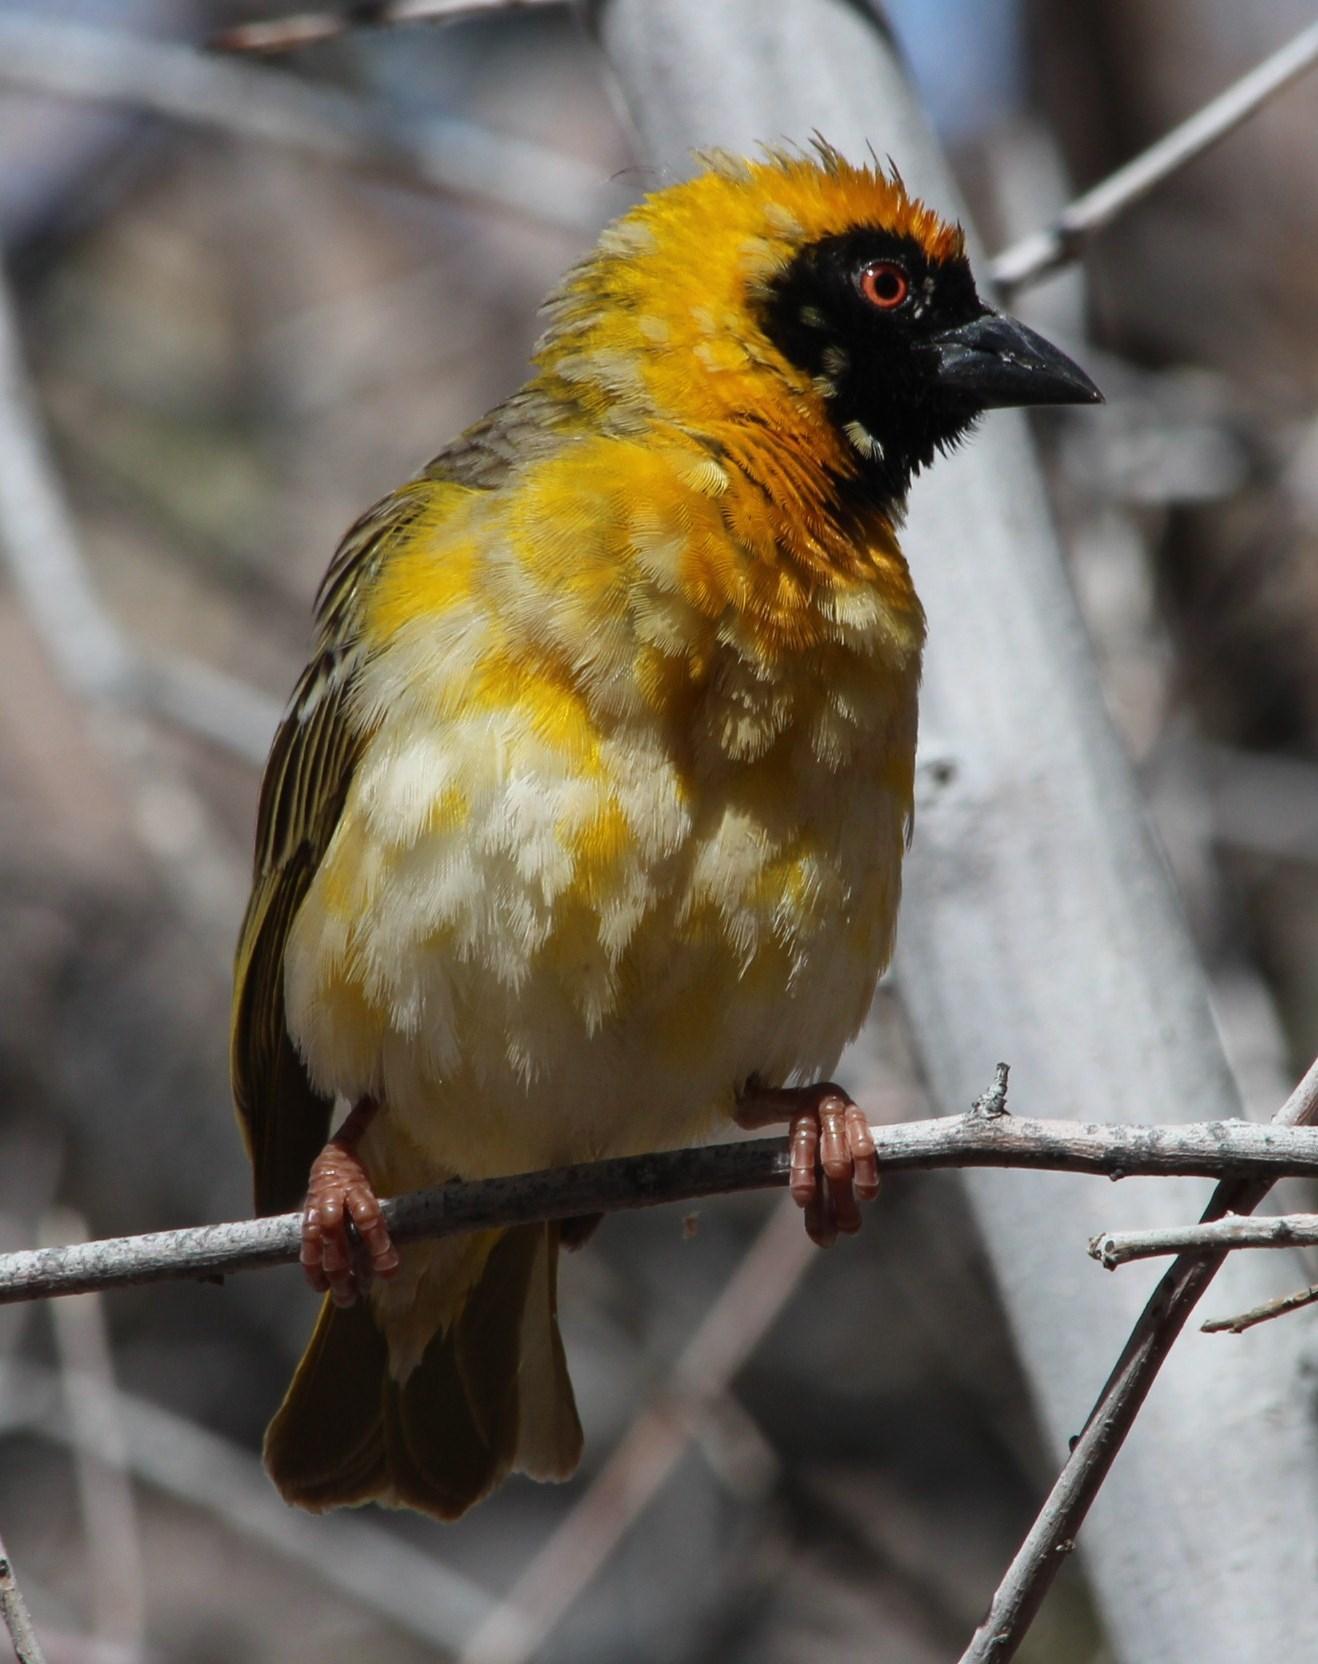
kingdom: Animalia
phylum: Chordata
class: Aves
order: Passeriformes
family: Ploceidae
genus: Ploceus
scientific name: Ploceus velatus
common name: Southern masked weaver
